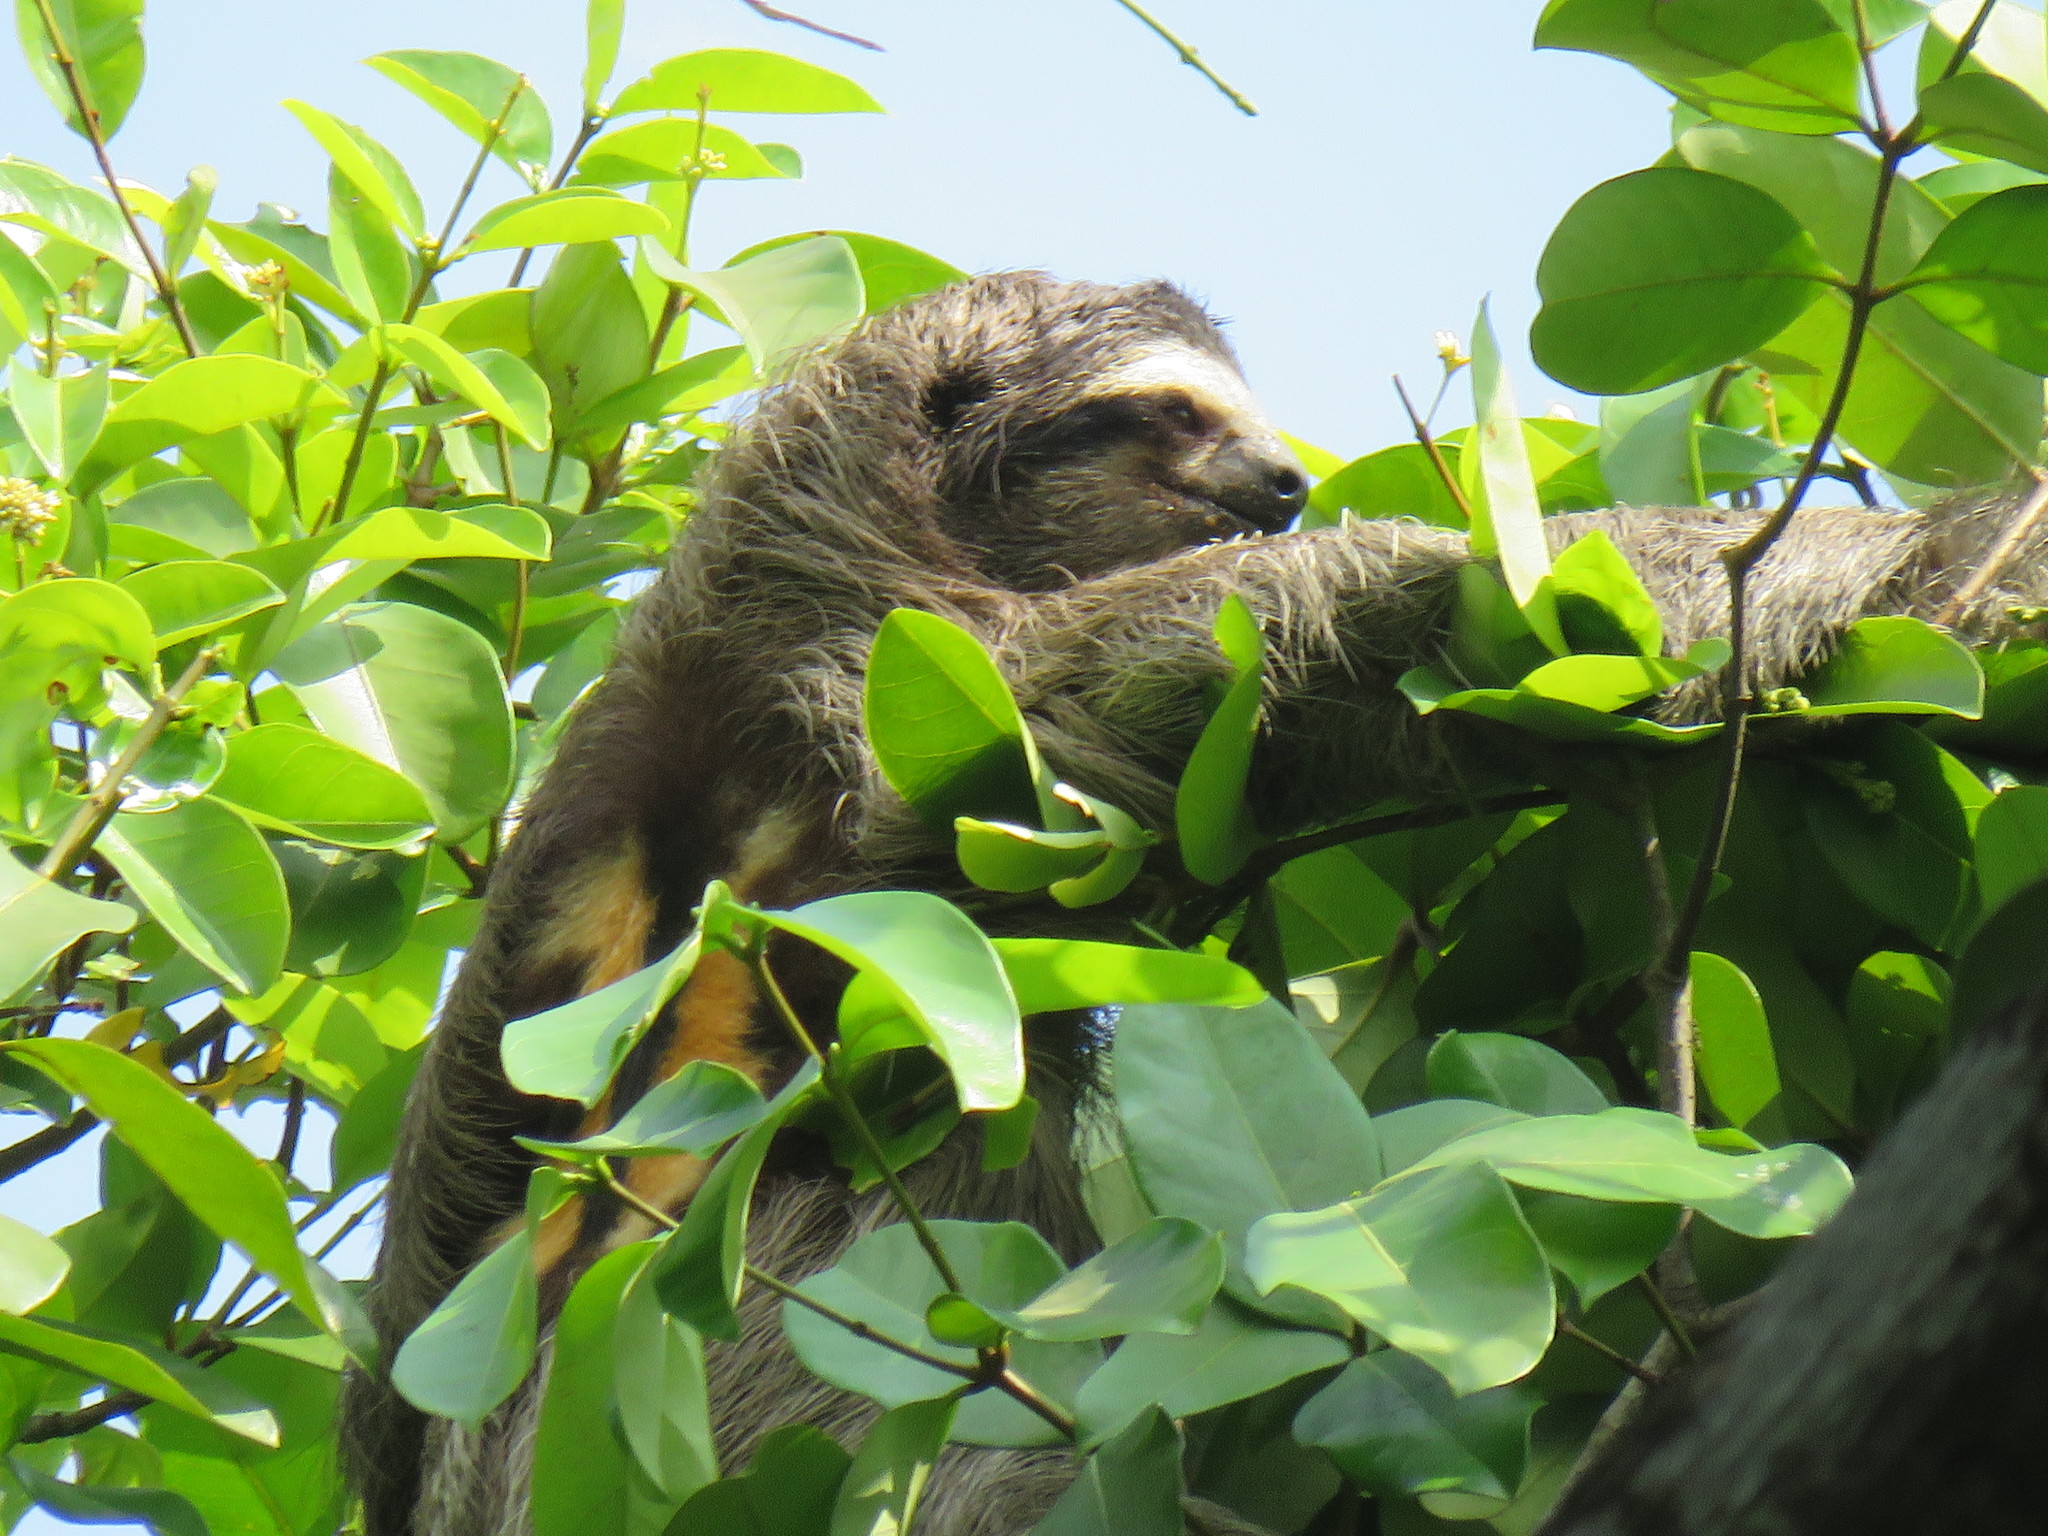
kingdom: Animalia
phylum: Chordata
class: Mammalia
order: Pilosa
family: Bradypodidae
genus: Bradypus
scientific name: Bradypus variegatus
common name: Brown-throated three-toed sloth
